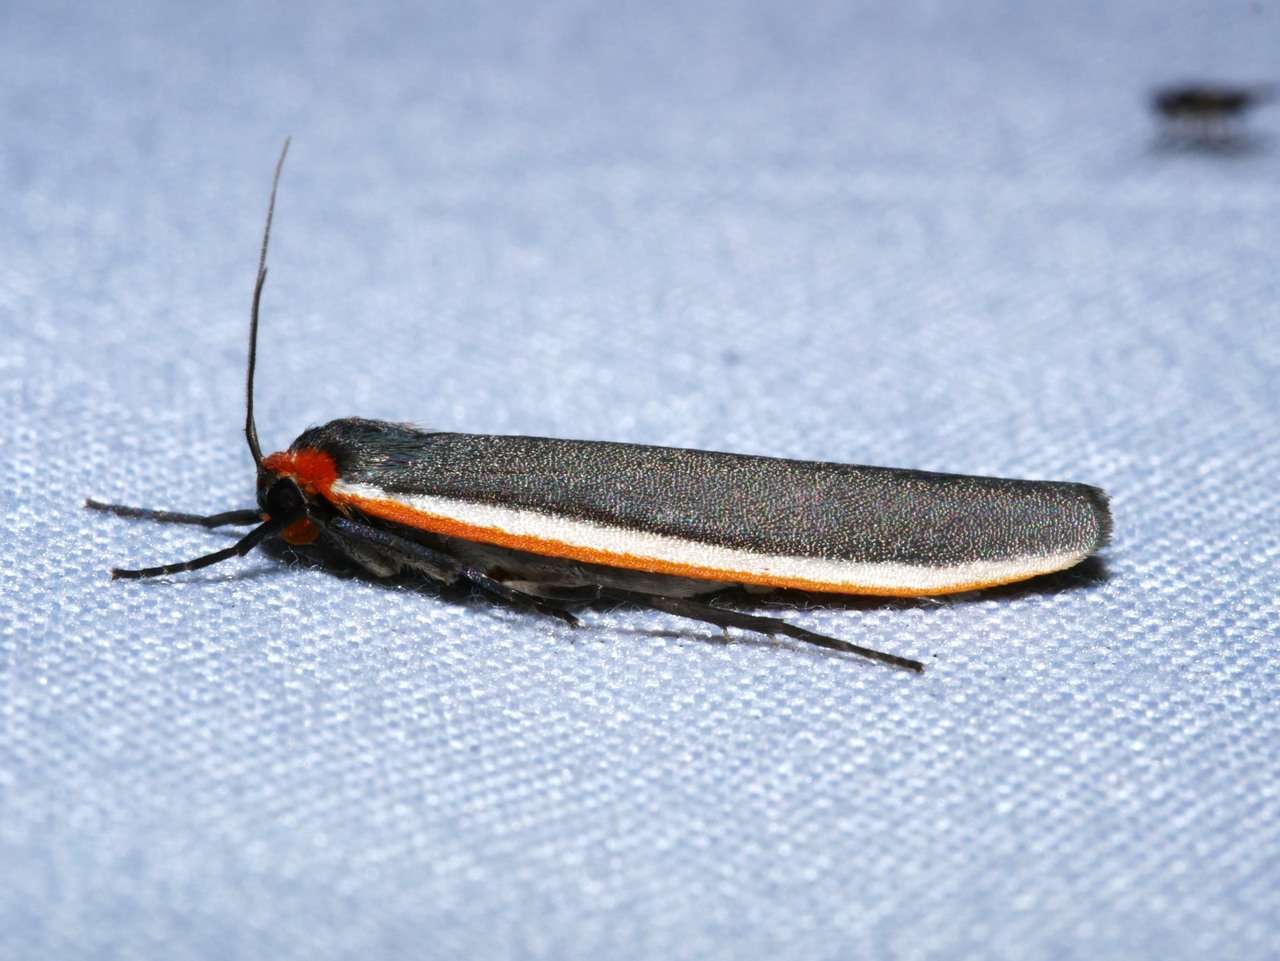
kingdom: Animalia
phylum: Arthropoda
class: Insecta
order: Lepidoptera
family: Erebidae
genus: Palaeosia
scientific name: Palaeosia bicosta
